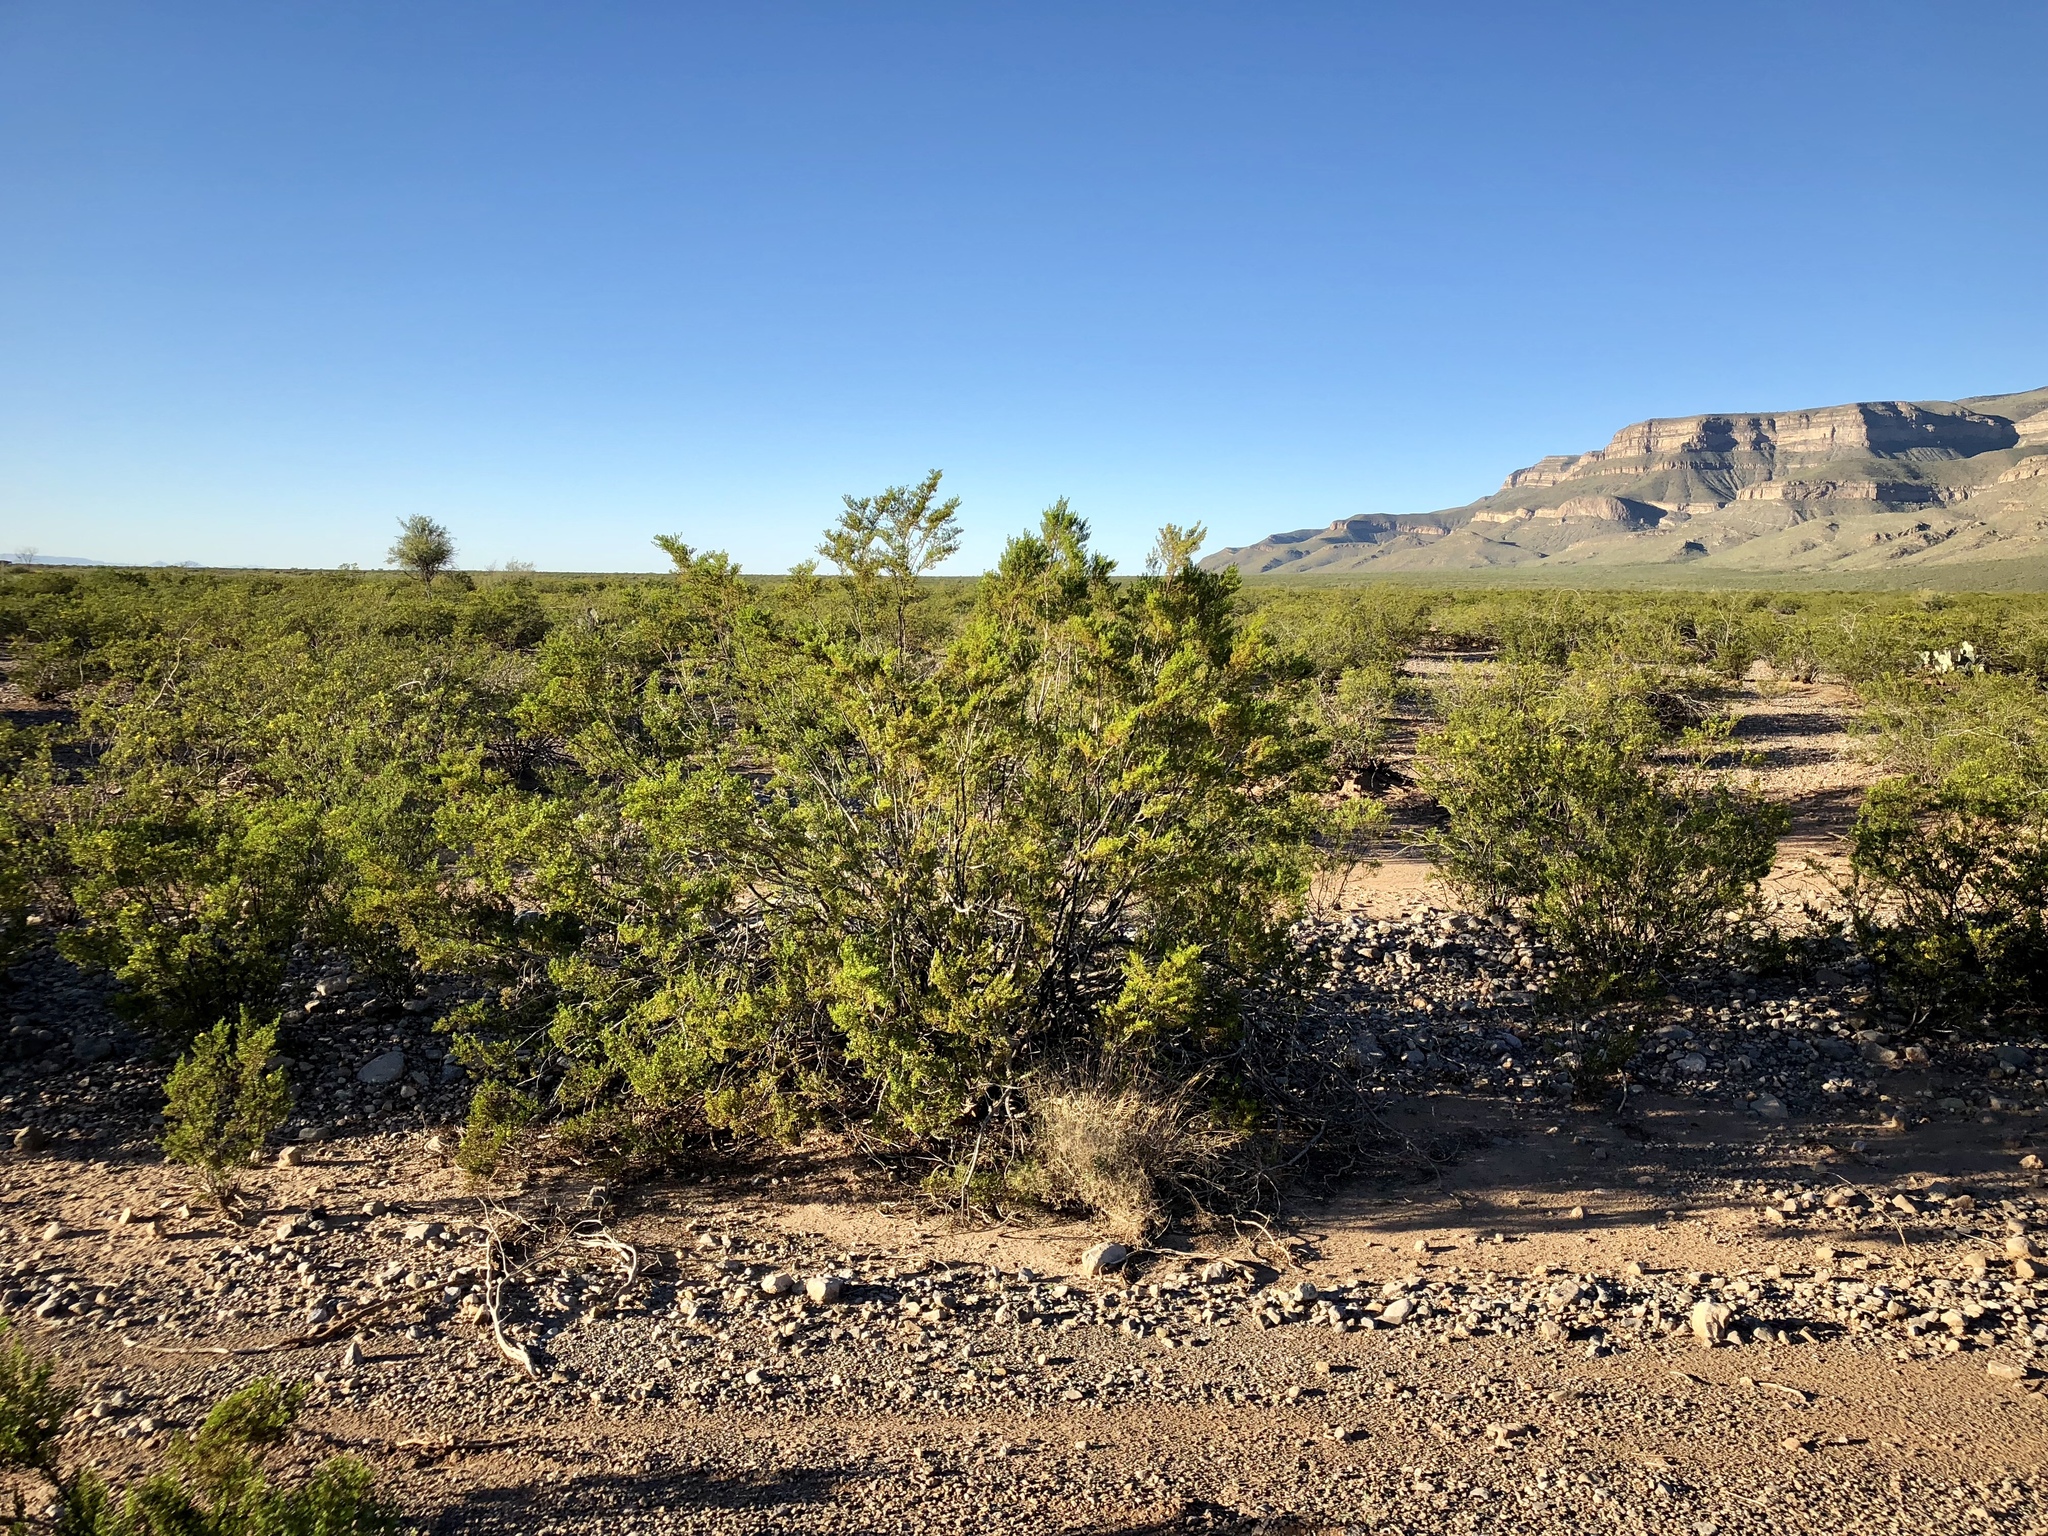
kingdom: Plantae
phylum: Tracheophyta
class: Magnoliopsida
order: Zygophyllales
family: Zygophyllaceae
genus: Larrea
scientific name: Larrea tridentata
